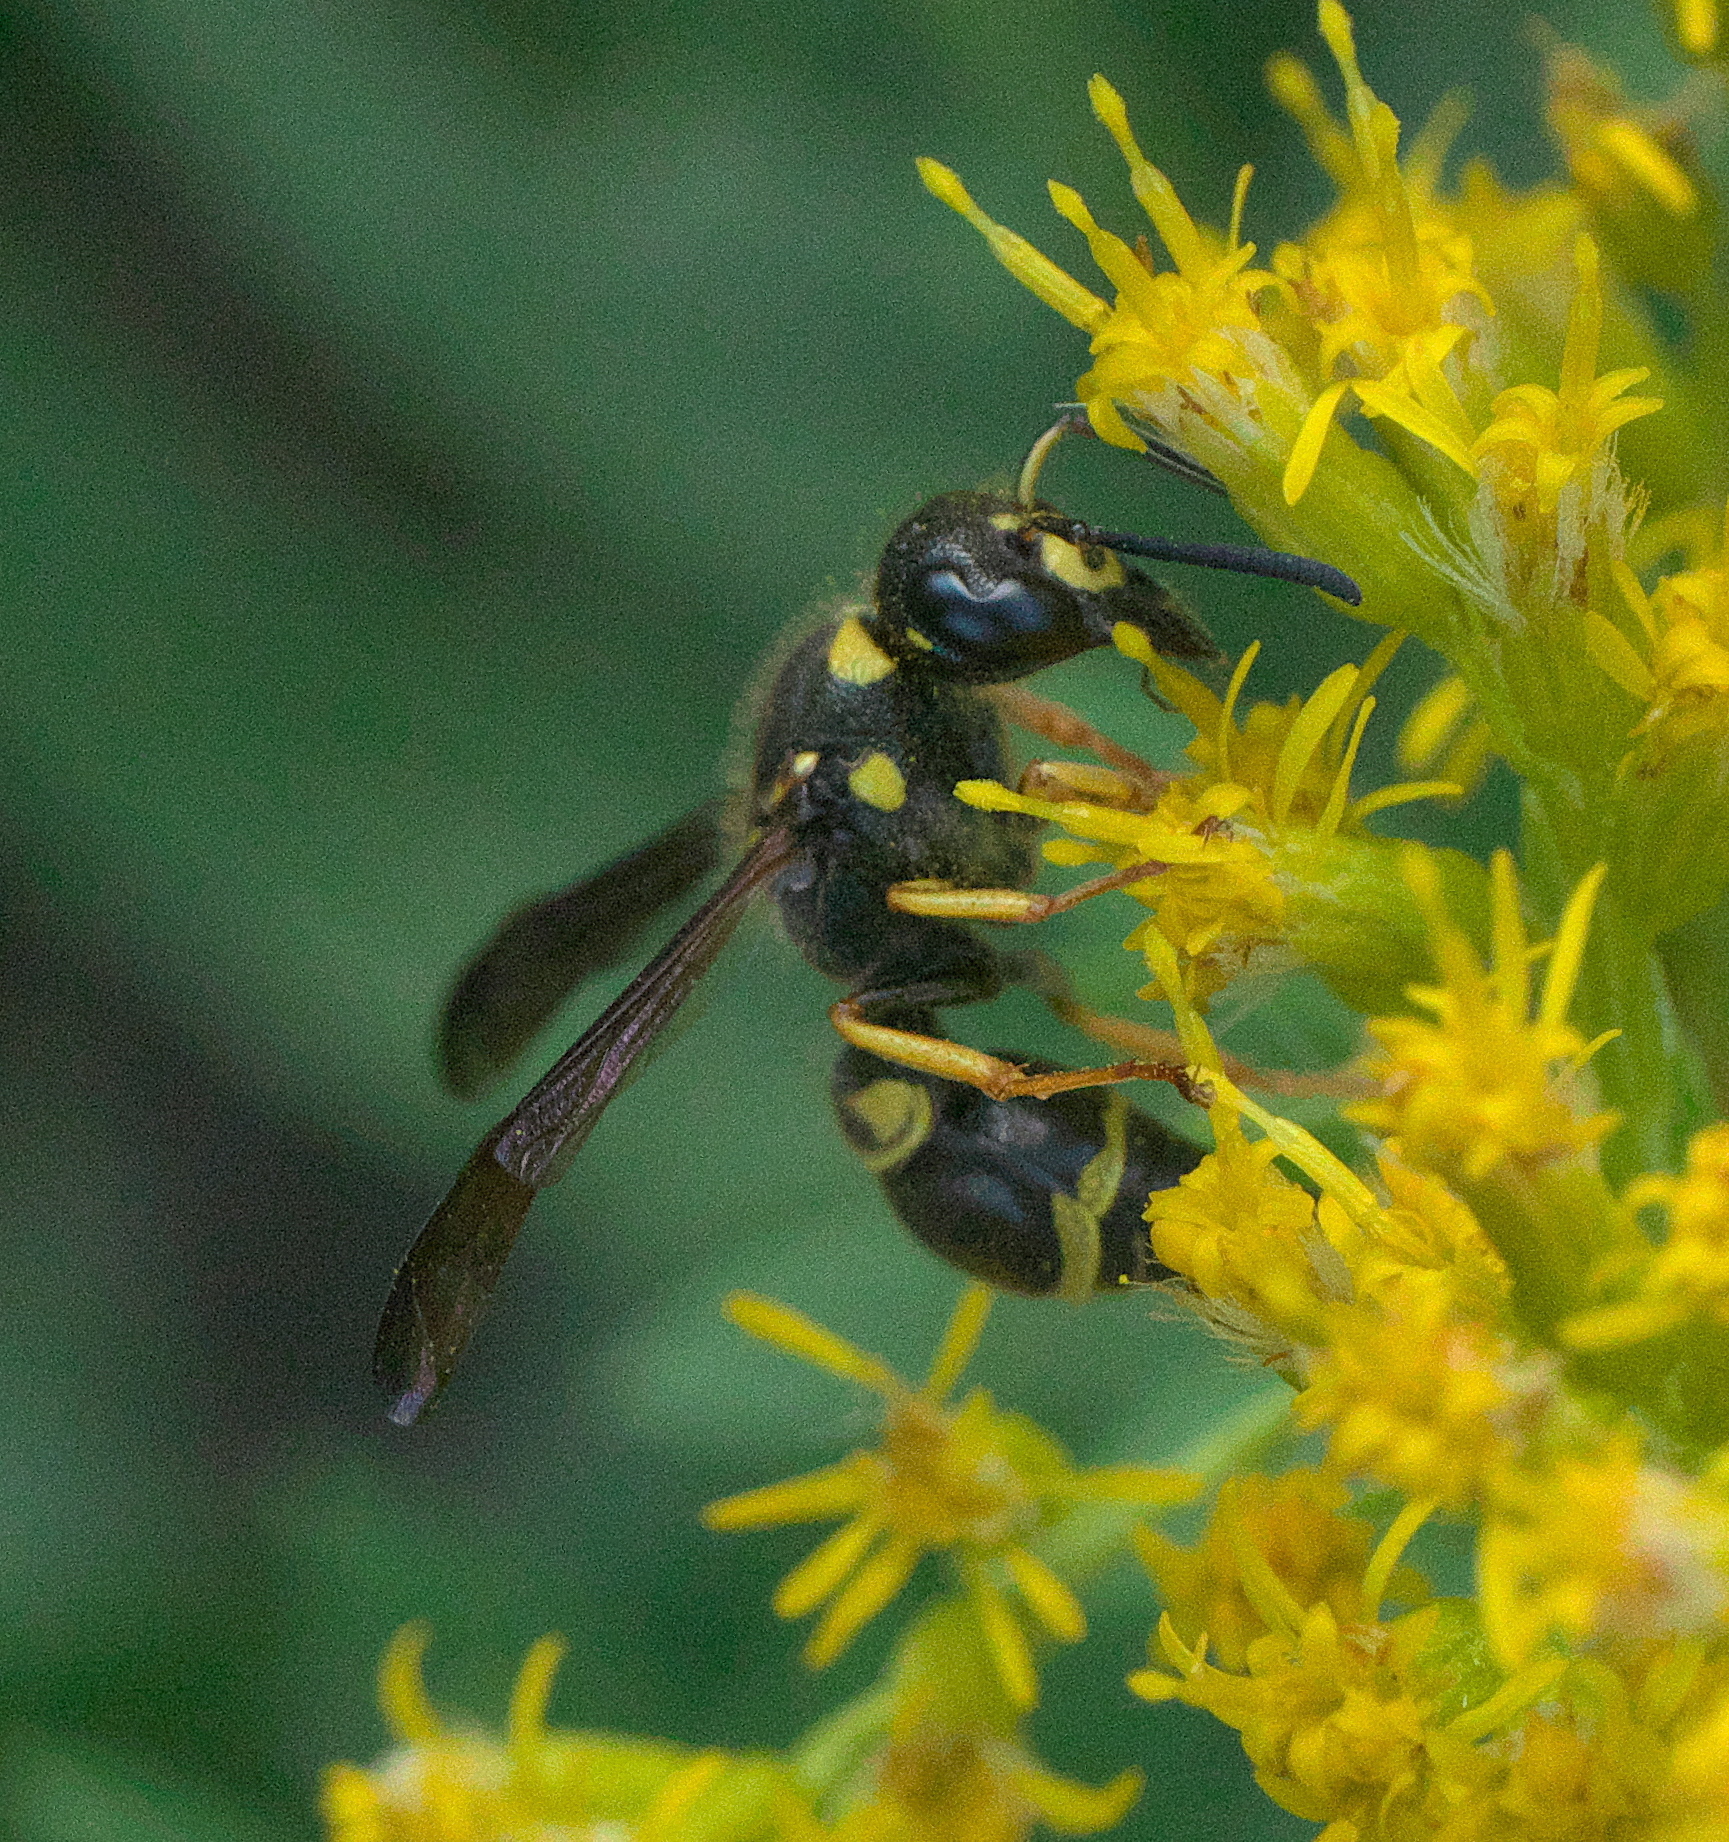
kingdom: Animalia
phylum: Arthropoda
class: Insecta
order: Hymenoptera
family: Vespidae
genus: Ancistrocerus
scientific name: Ancistrocerus campestris
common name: Smiling mason wasp
